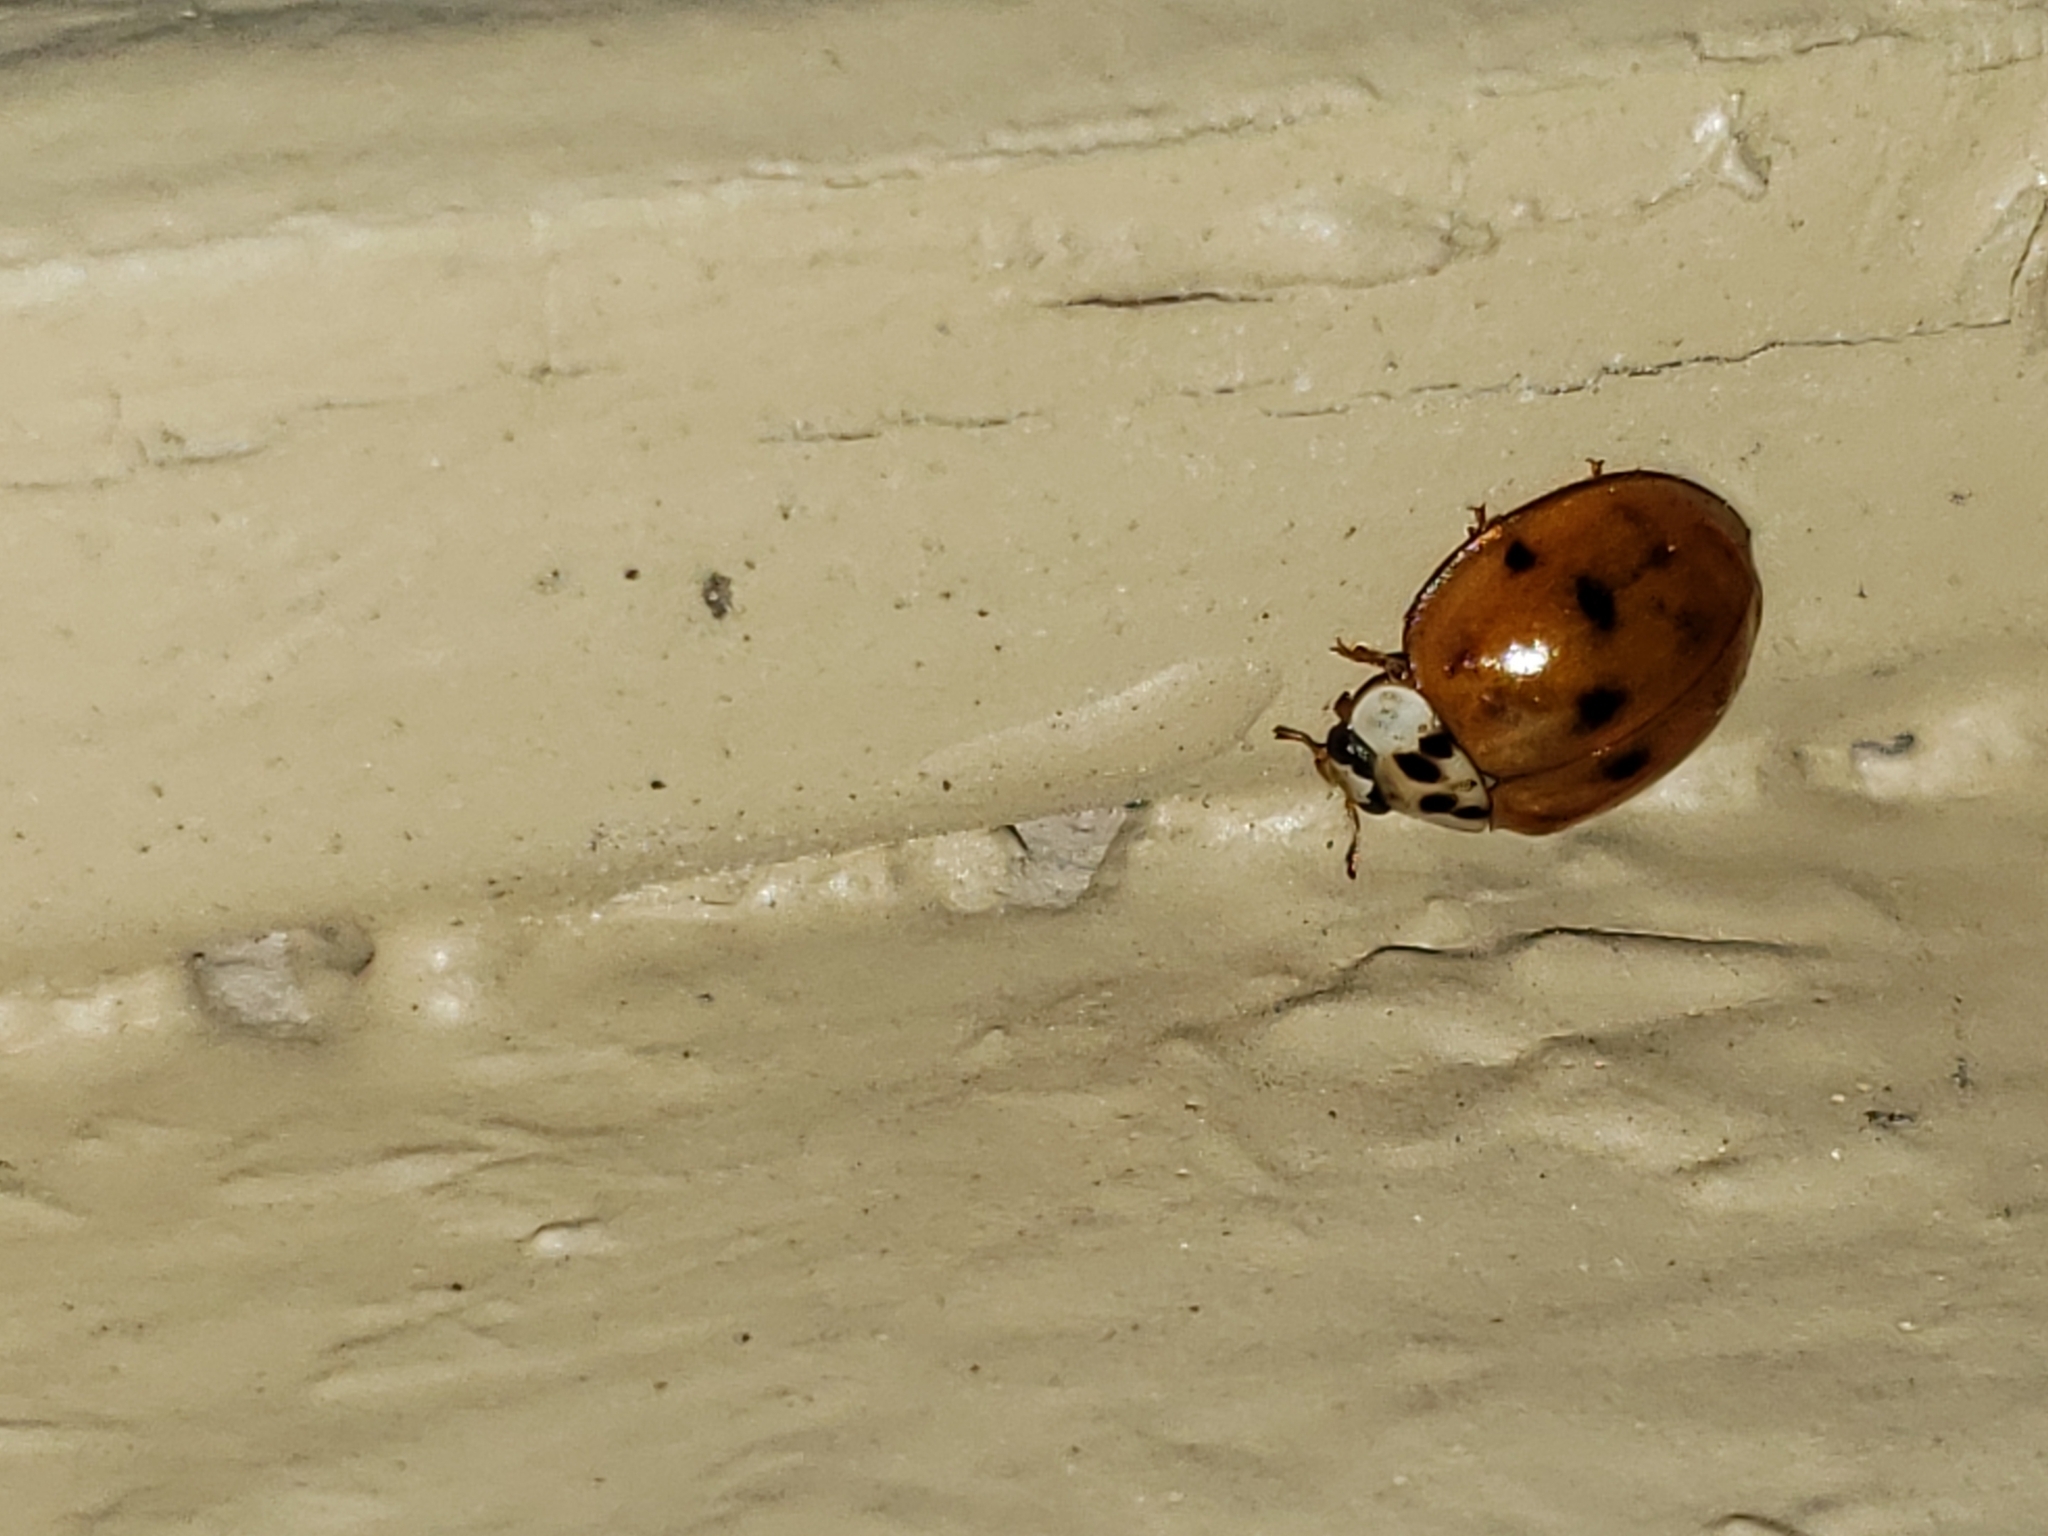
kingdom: Animalia
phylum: Arthropoda
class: Insecta
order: Coleoptera
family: Coccinellidae
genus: Harmonia
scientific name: Harmonia axyridis
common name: Harlequin ladybird
